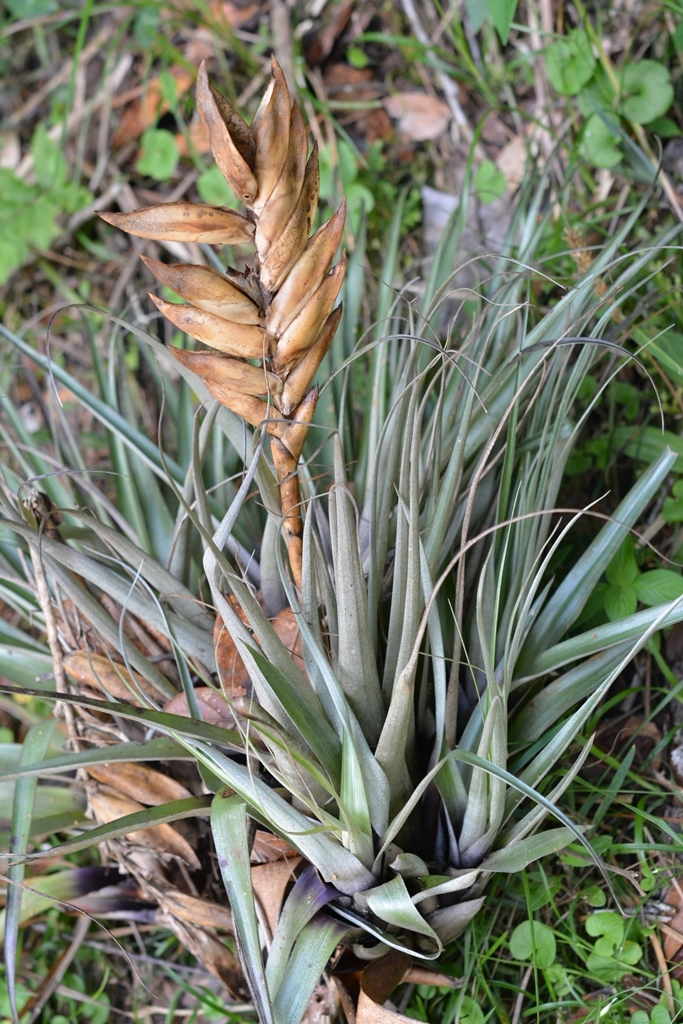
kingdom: Plantae
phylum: Tracheophyta
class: Liliopsida
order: Poales
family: Bromeliaceae
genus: Tillandsia
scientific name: Tillandsia lampropoda
